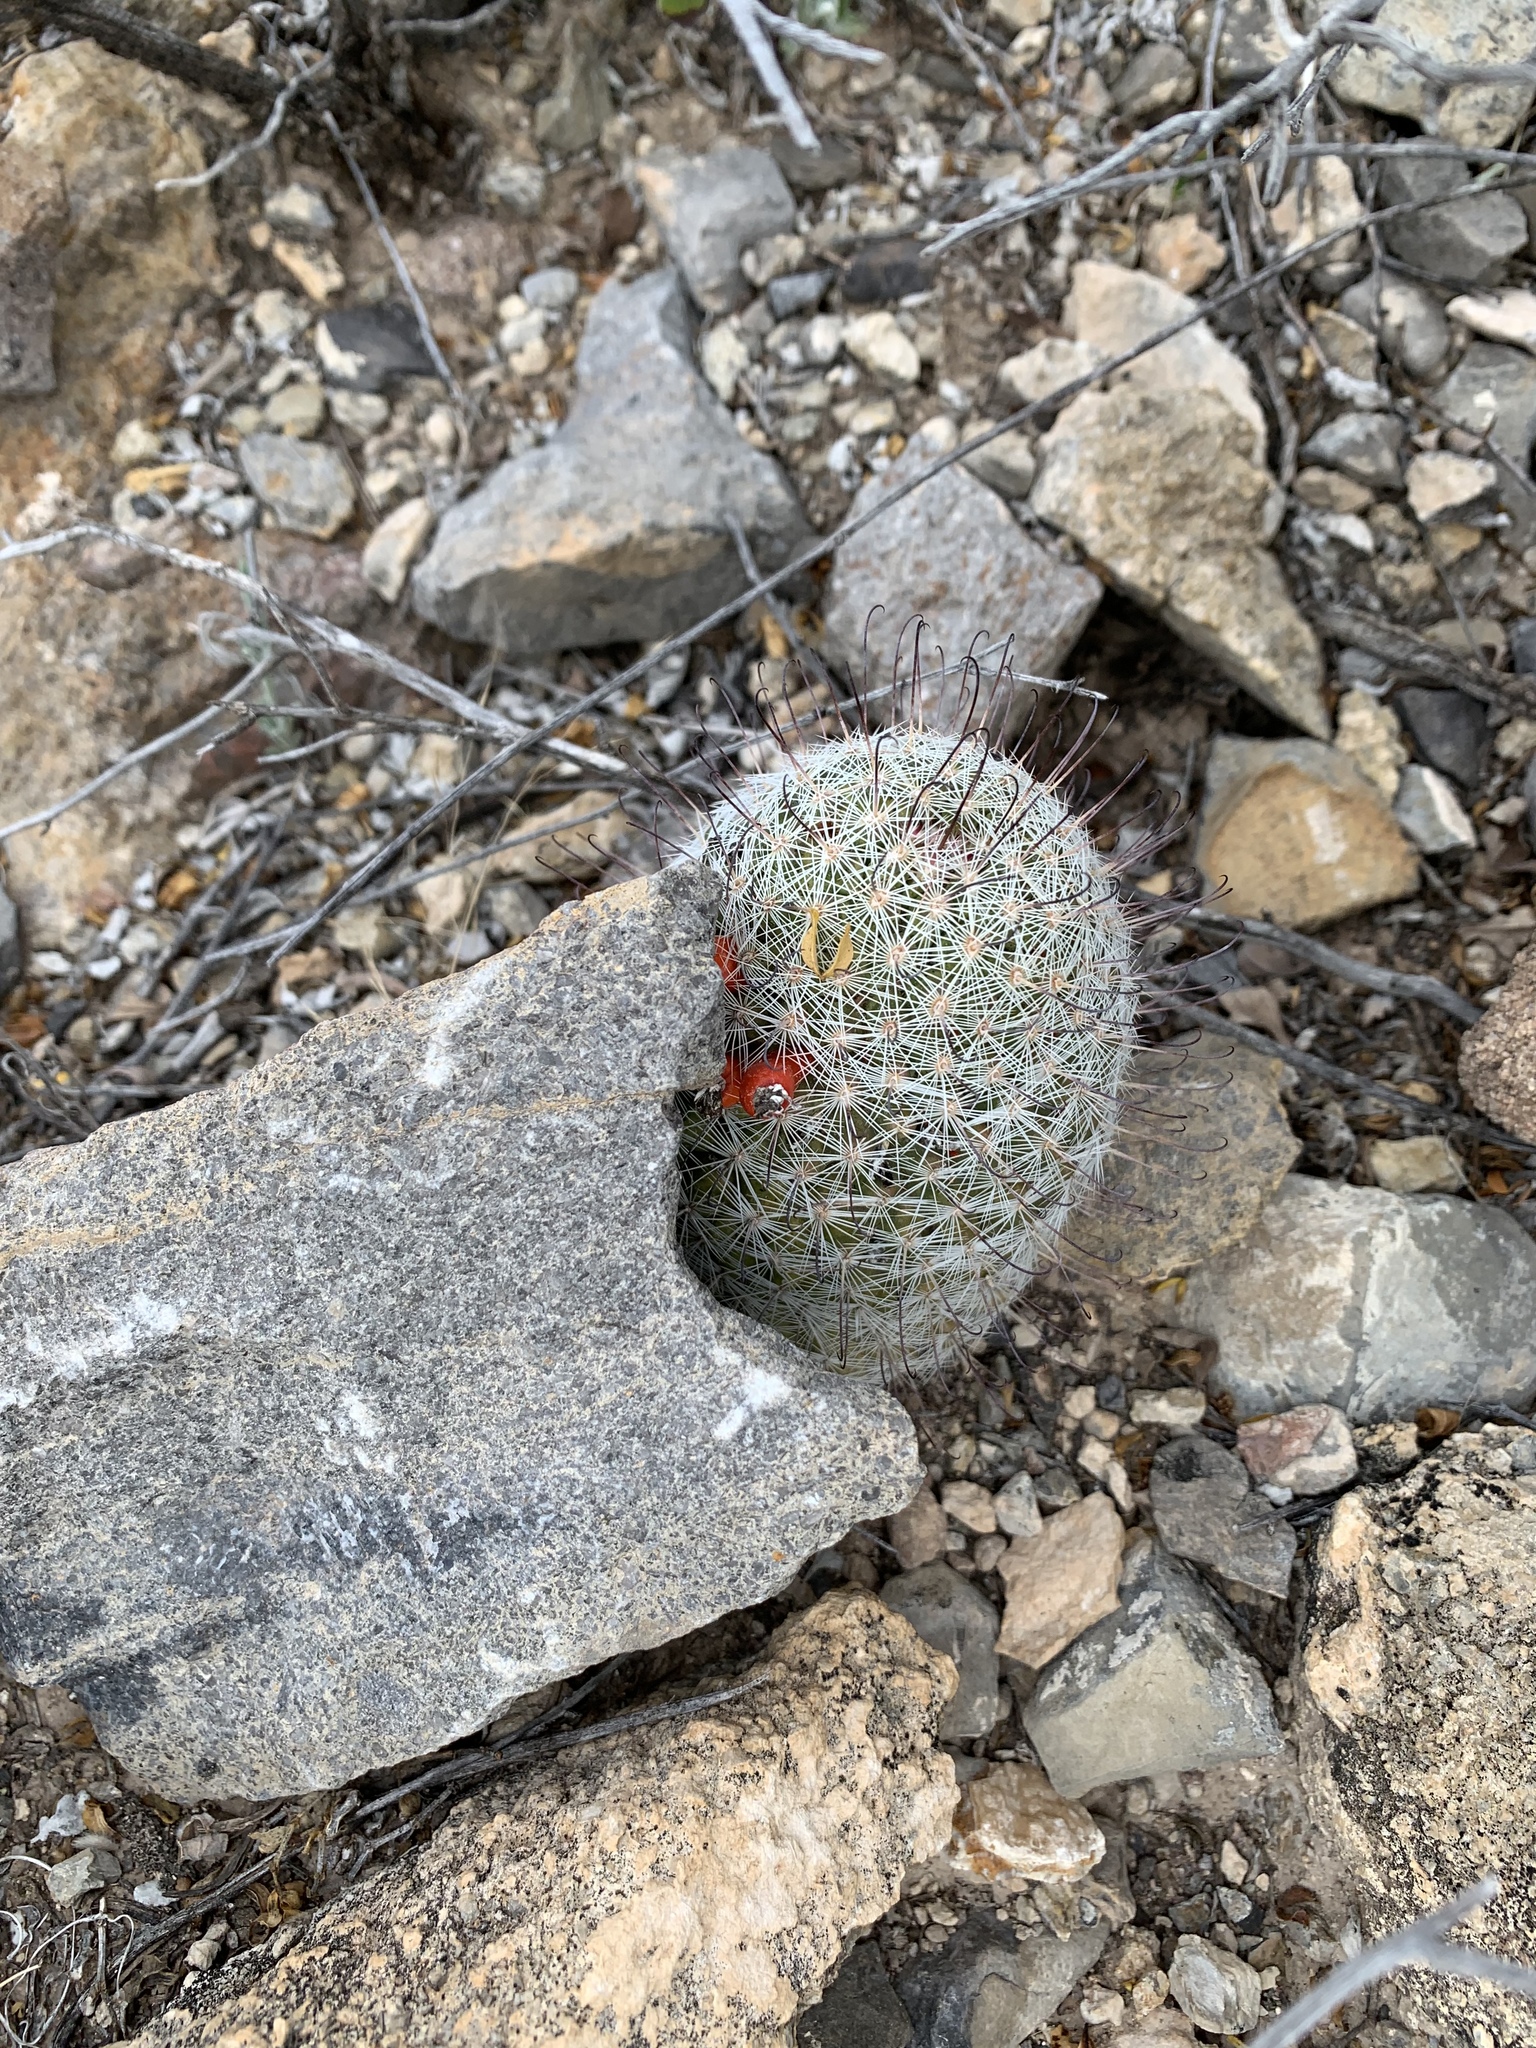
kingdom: Plantae
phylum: Tracheophyta
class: Magnoliopsida
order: Caryophyllales
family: Cactaceae
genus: Cochemiea
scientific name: Cochemiea grahamii
